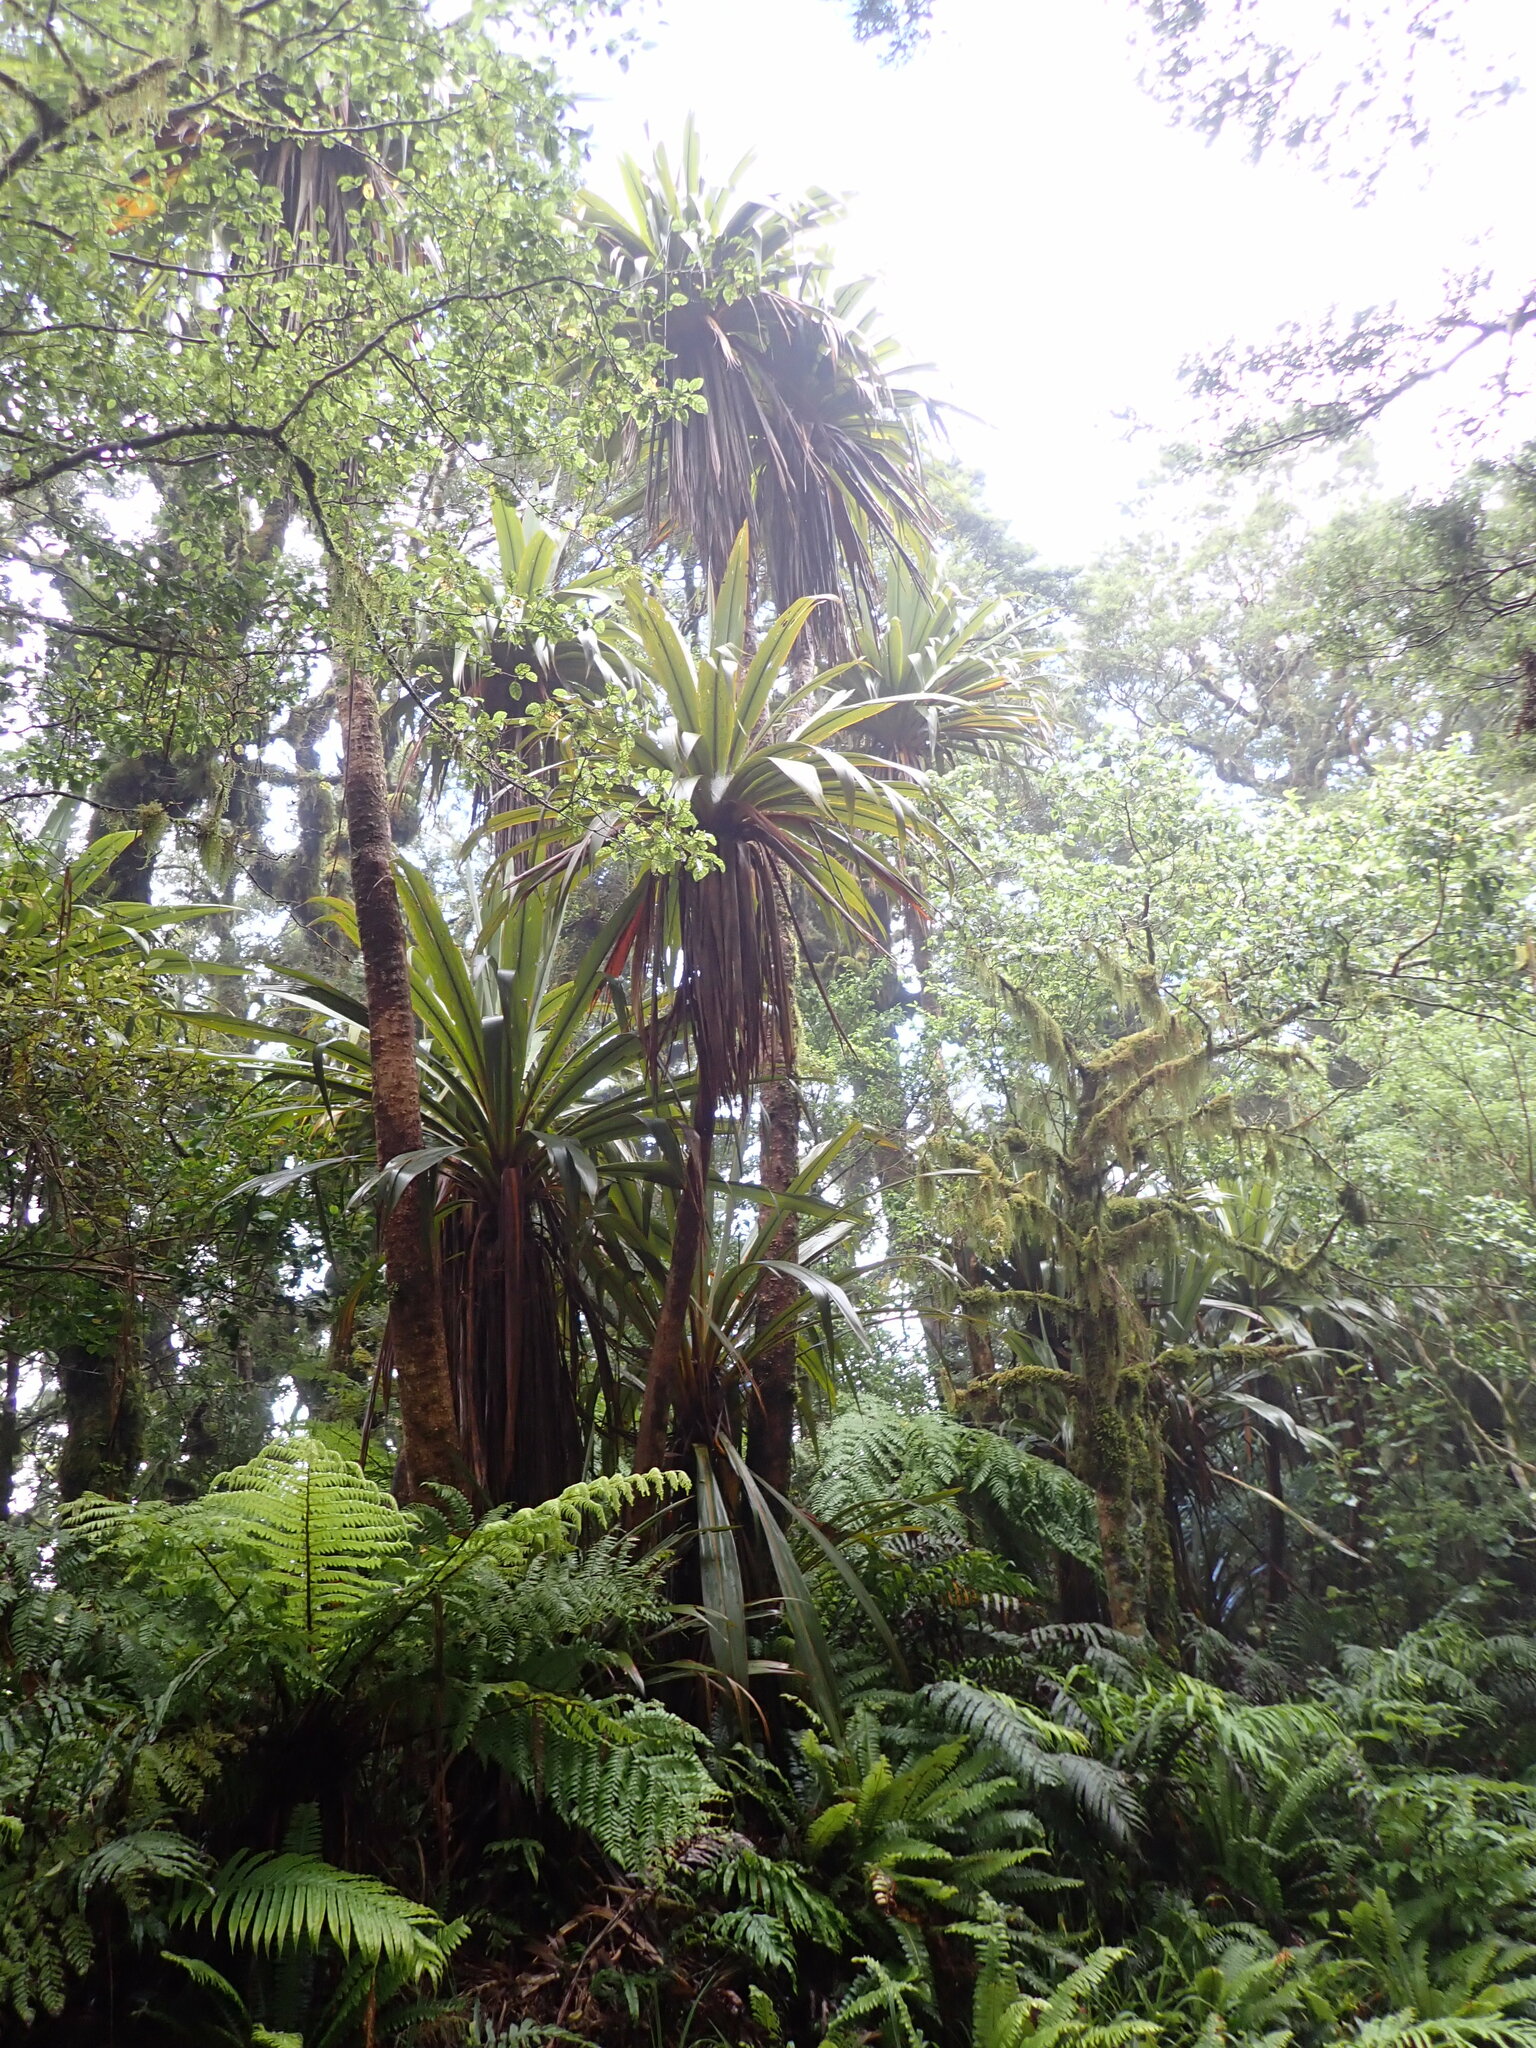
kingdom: Plantae
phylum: Tracheophyta
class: Liliopsida
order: Asparagales
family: Asparagaceae
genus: Cordyline
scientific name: Cordyline indivisa
